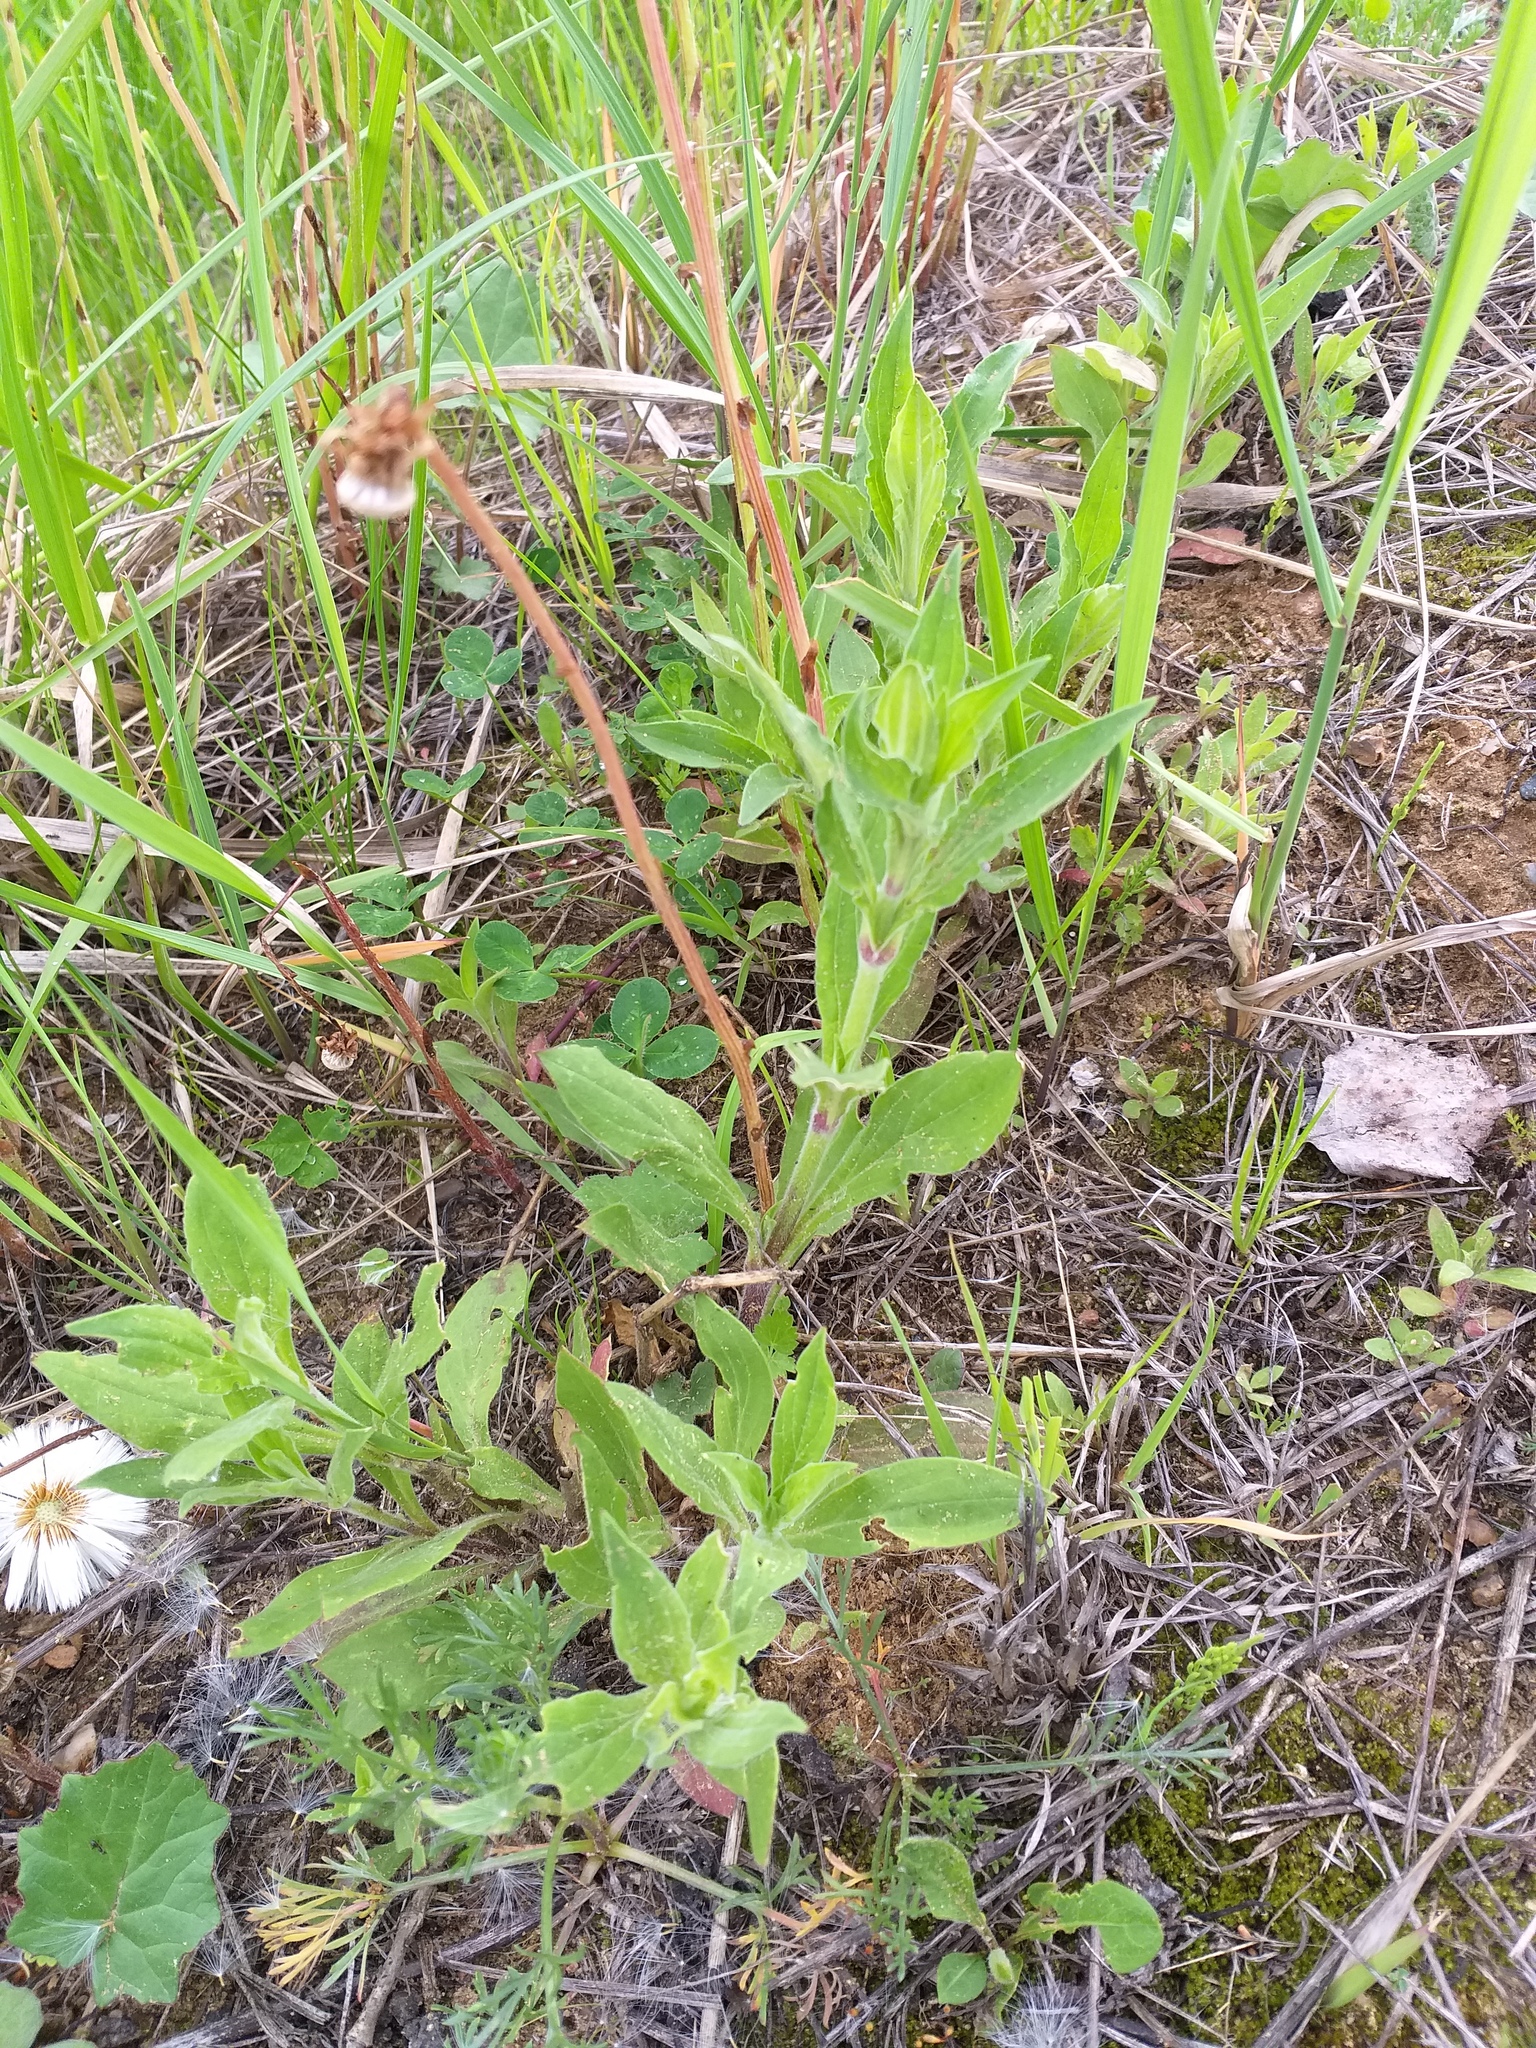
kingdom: Plantae
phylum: Tracheophyta
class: Magnoliopsida
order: Caryophyllales
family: Caryophyllaceae
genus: Silene
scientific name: Silene latifolia
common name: White campion
